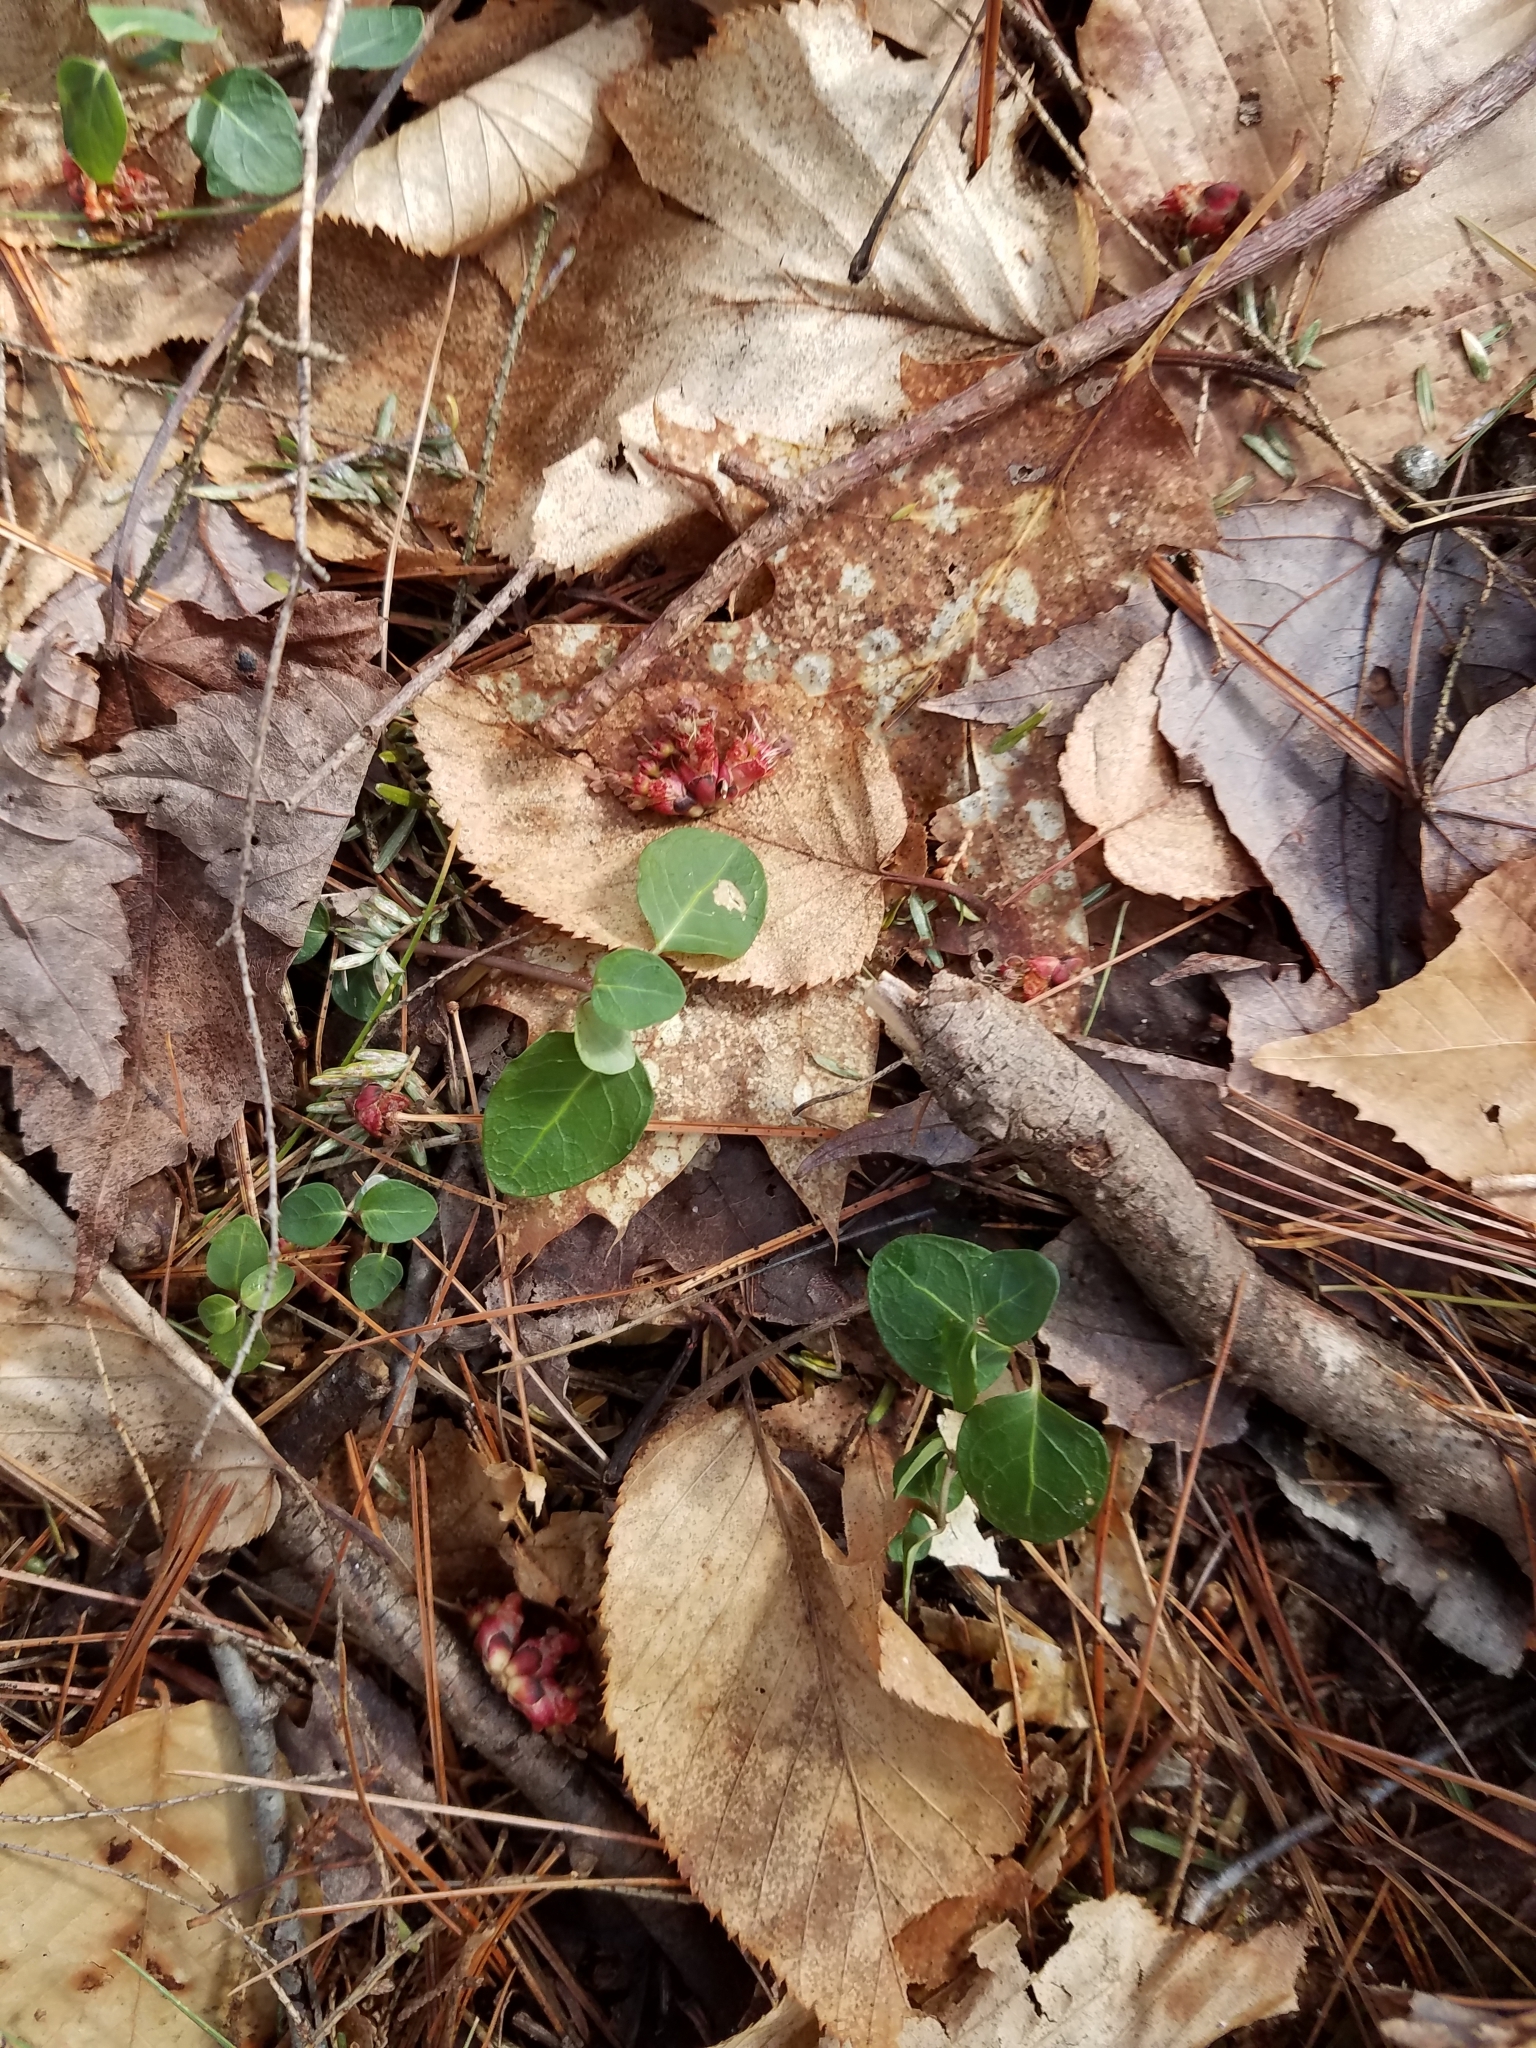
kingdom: Plantae
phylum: Tracheophyta
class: Magnoliopsida
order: Gentianales
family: Rubiaceae
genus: Mitchella
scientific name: Mitchella repens
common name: Partridge-berry
